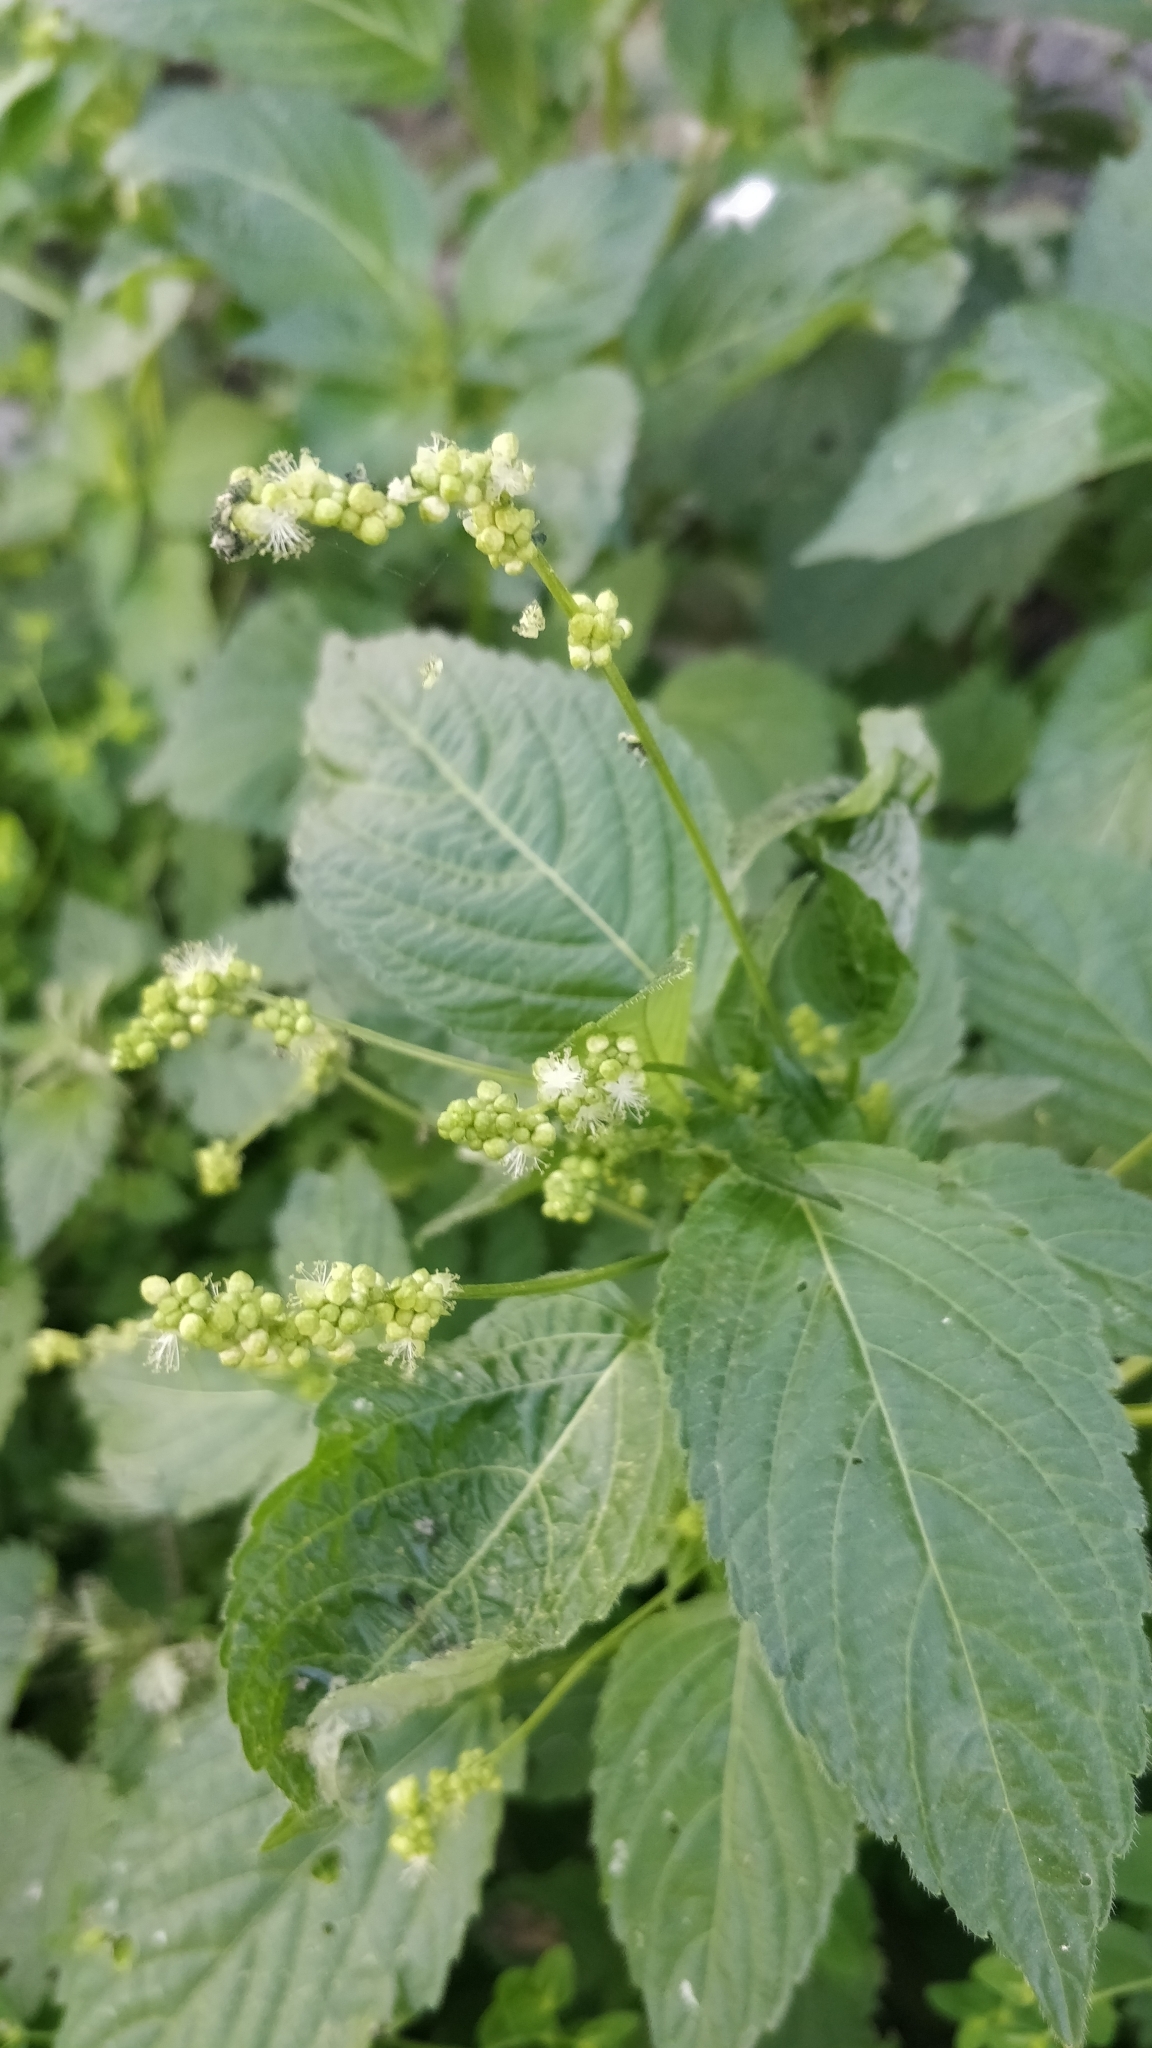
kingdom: Plantae
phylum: Tracheophyta
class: Magnoliopsida
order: Malpighiales
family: Euphorbiaceae
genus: Mercurialis
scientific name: Mercurialis annua
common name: Annual mercury
